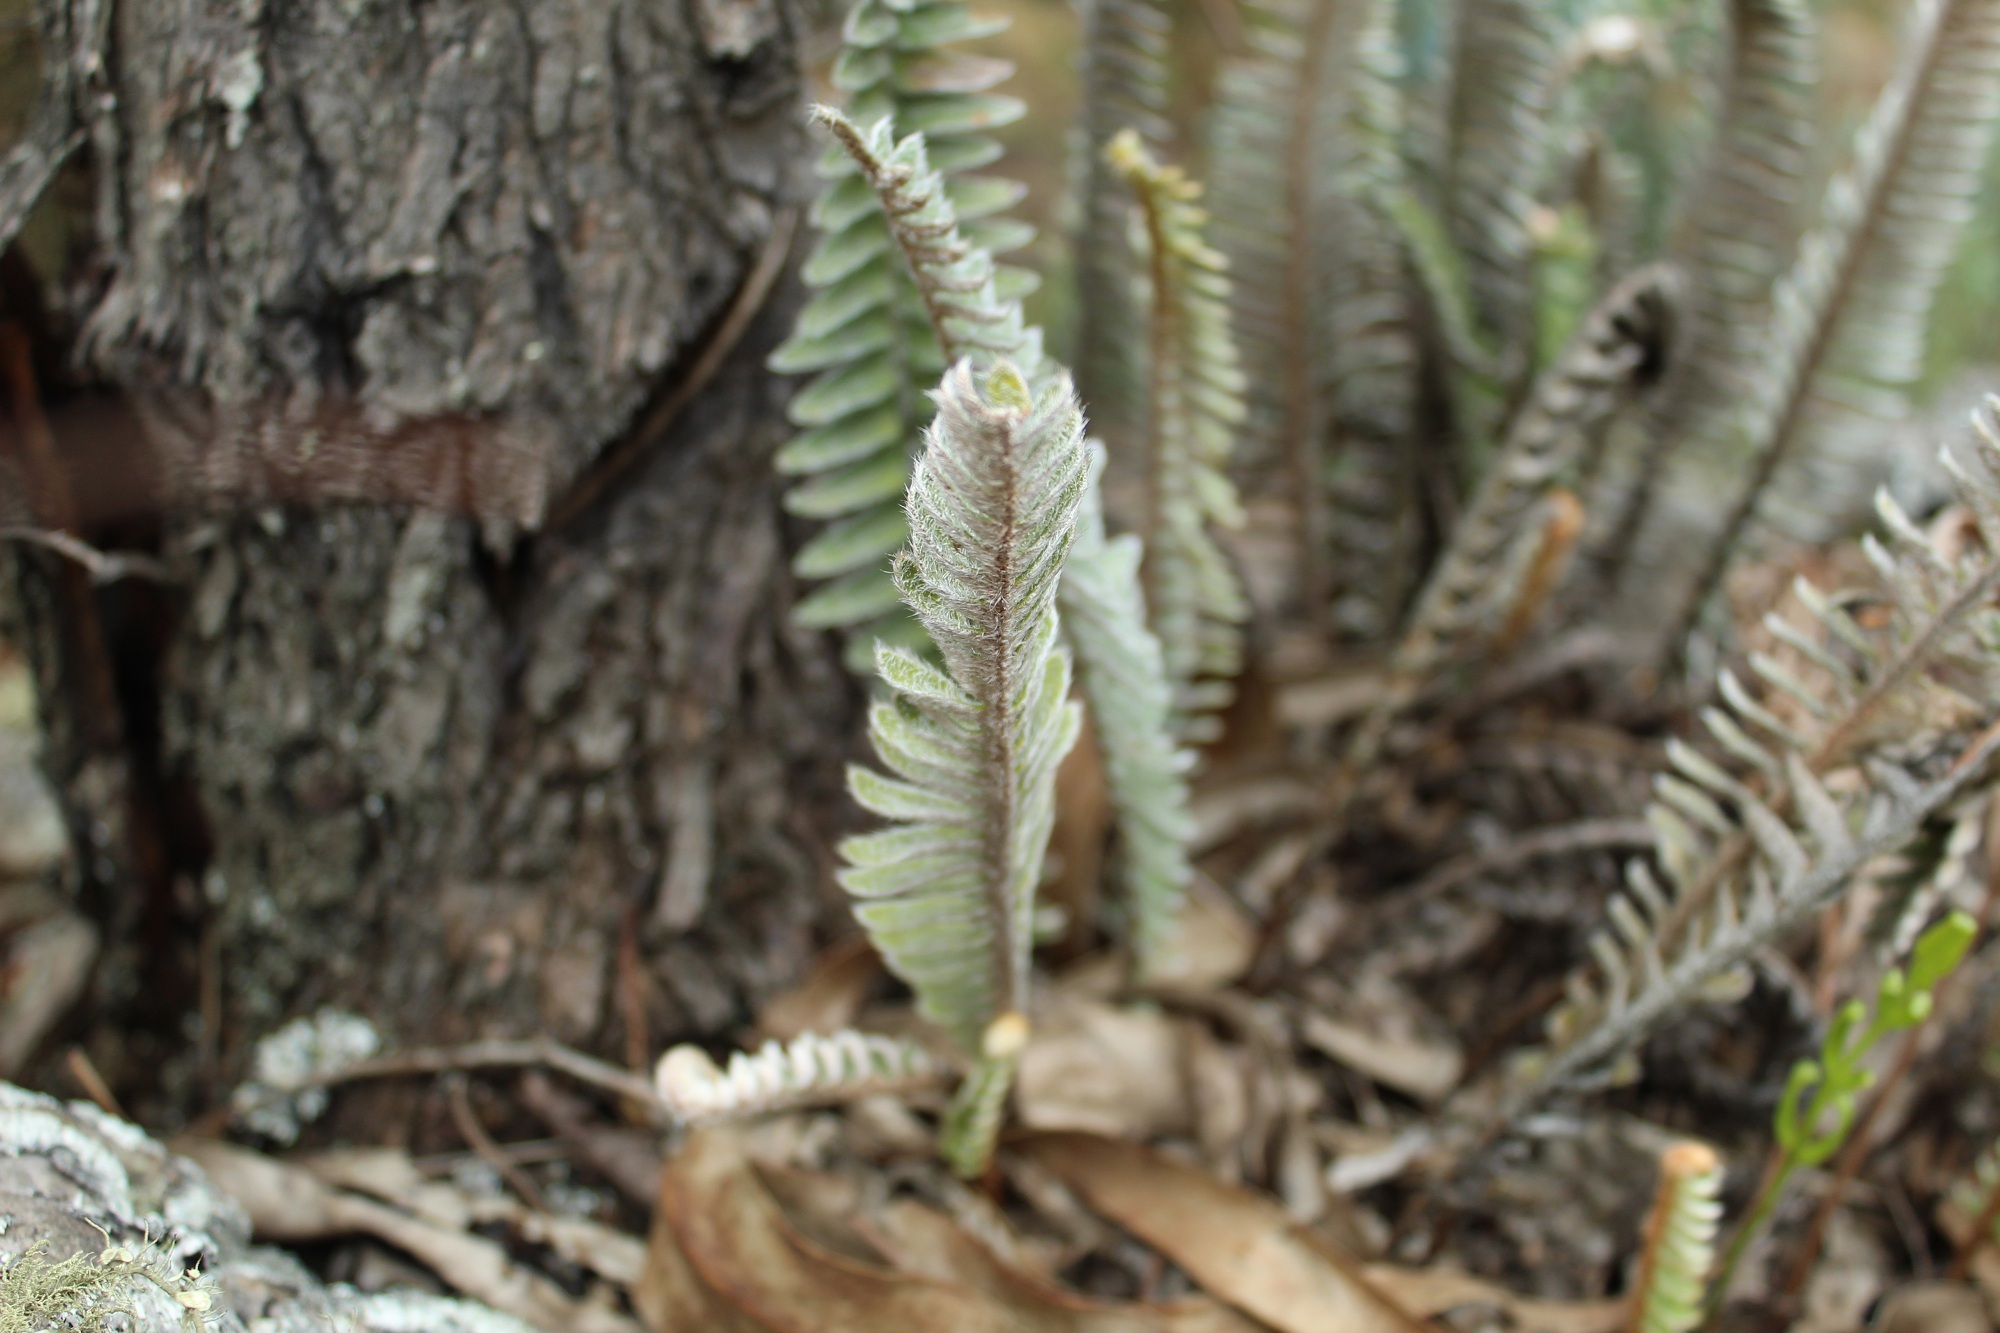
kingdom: Plantae
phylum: Tracheophyta
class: Polypodiopsida
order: Polypodiales
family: Polypodiaceae
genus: Pleopeltis
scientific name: Pleopeltis bombycina
